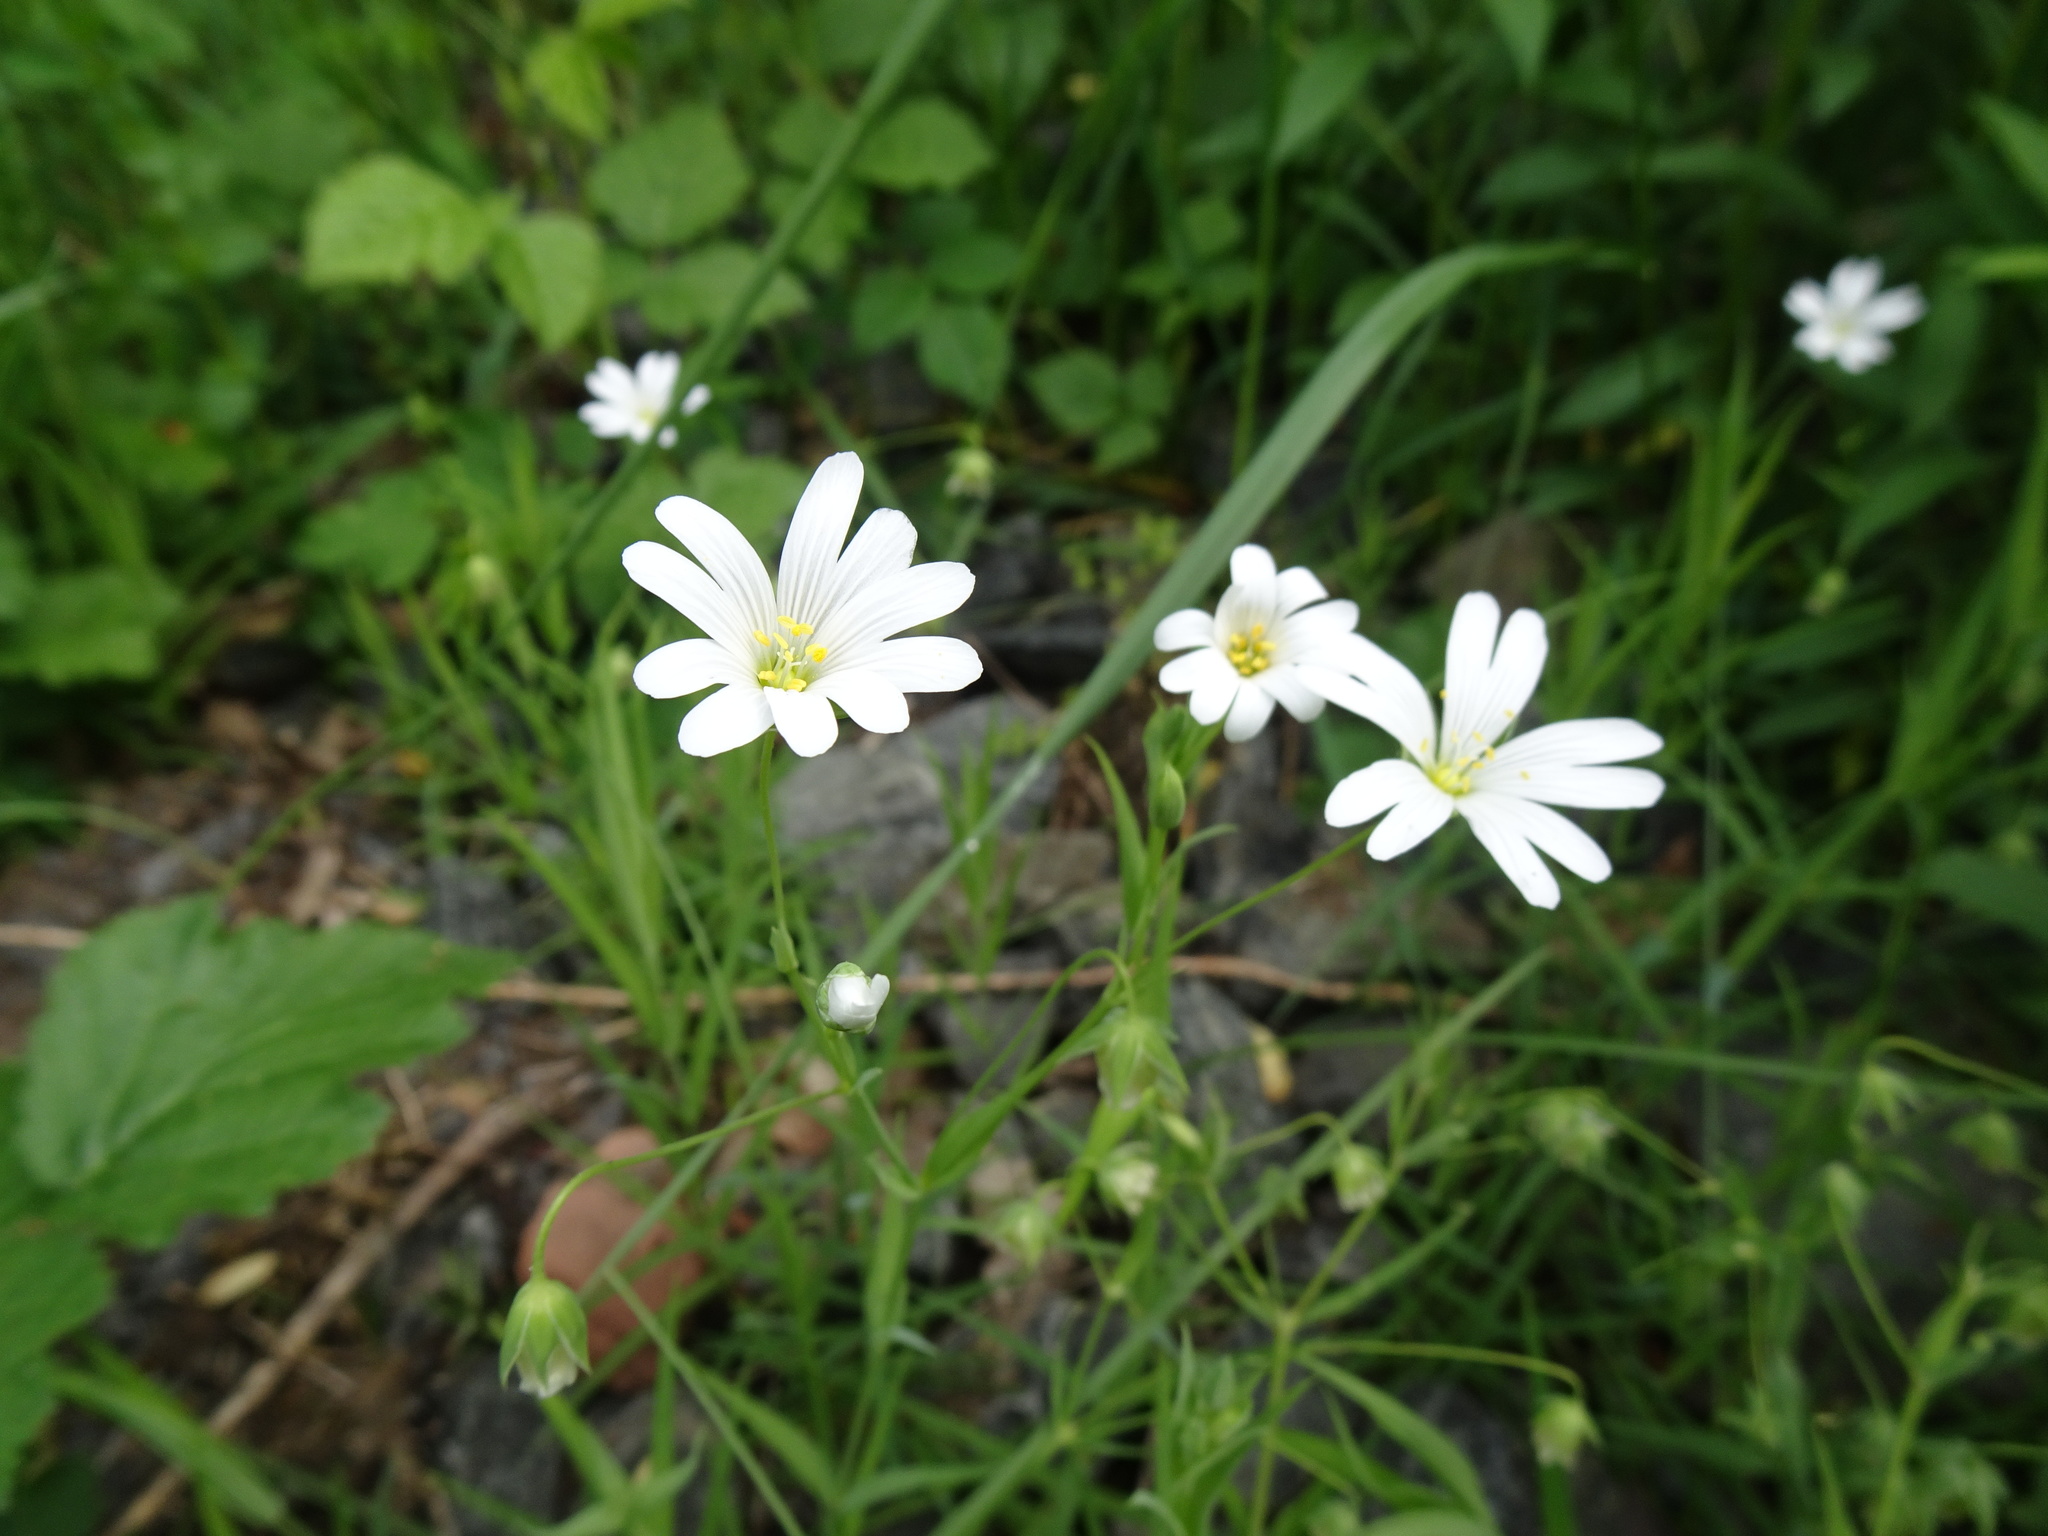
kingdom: Plantae
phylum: Tracheophyta
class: Magnoliopsida
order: Caryophyllales
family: Caryophyllaceae
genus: Rabelera
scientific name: Rabelera holostea
